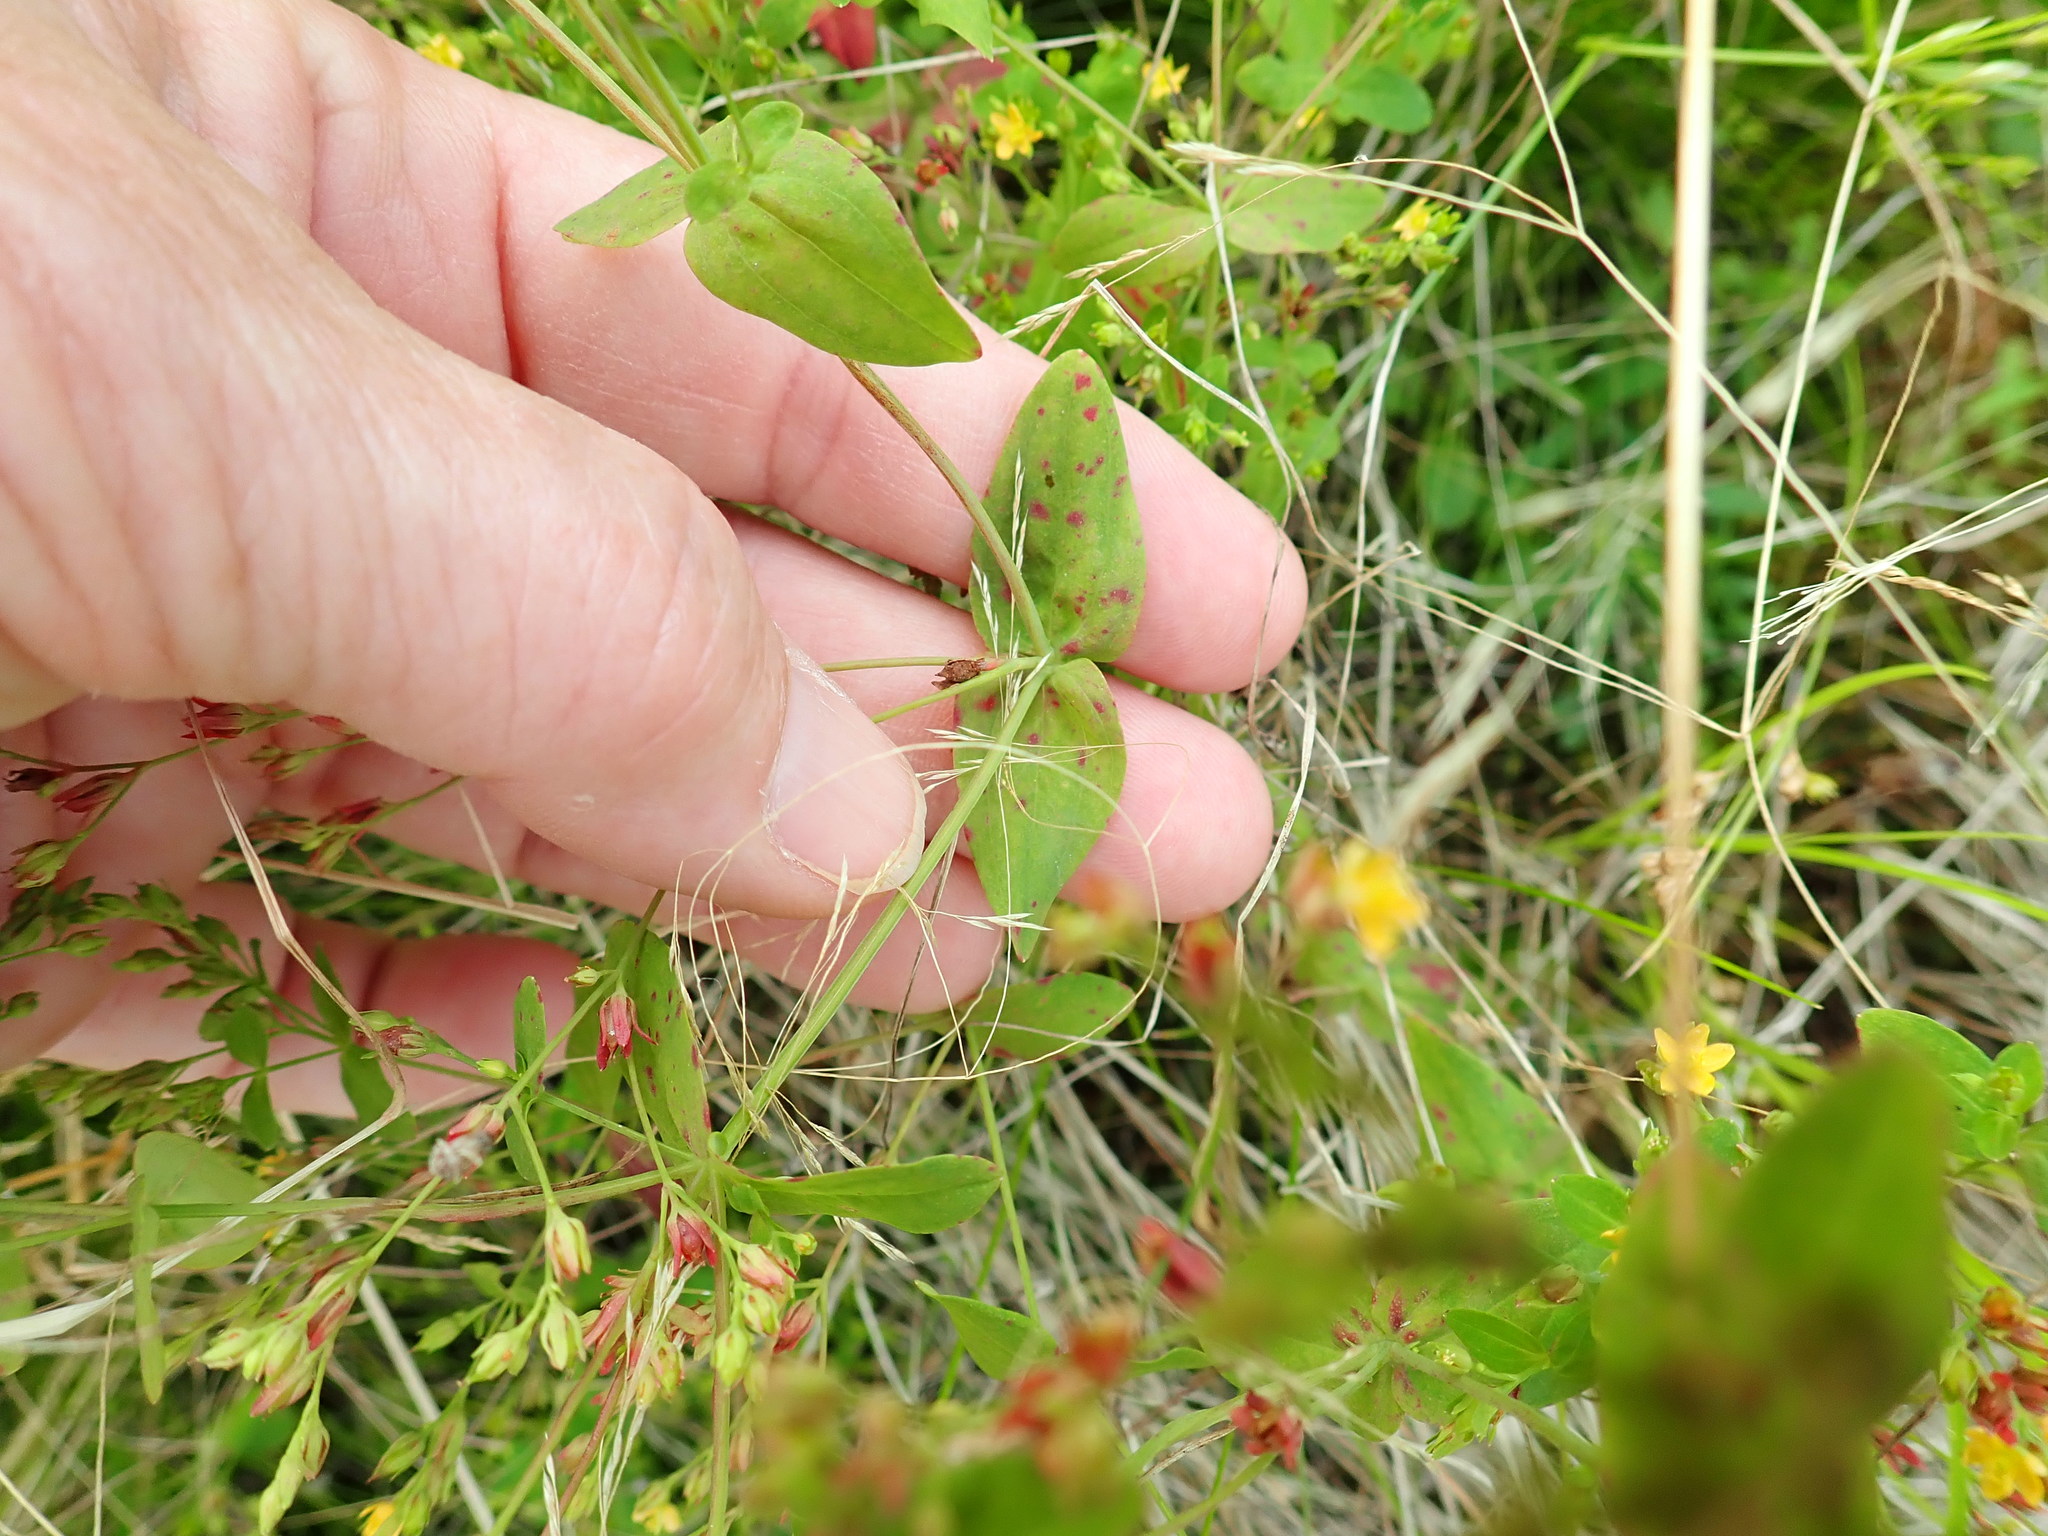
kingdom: Plantae
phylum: Tracheophyta
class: Magnoliopsida
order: Malpighiales
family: Hypericaceae
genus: Hypericum
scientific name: Hypericum mutilum
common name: Dwarf st. john's-wort
